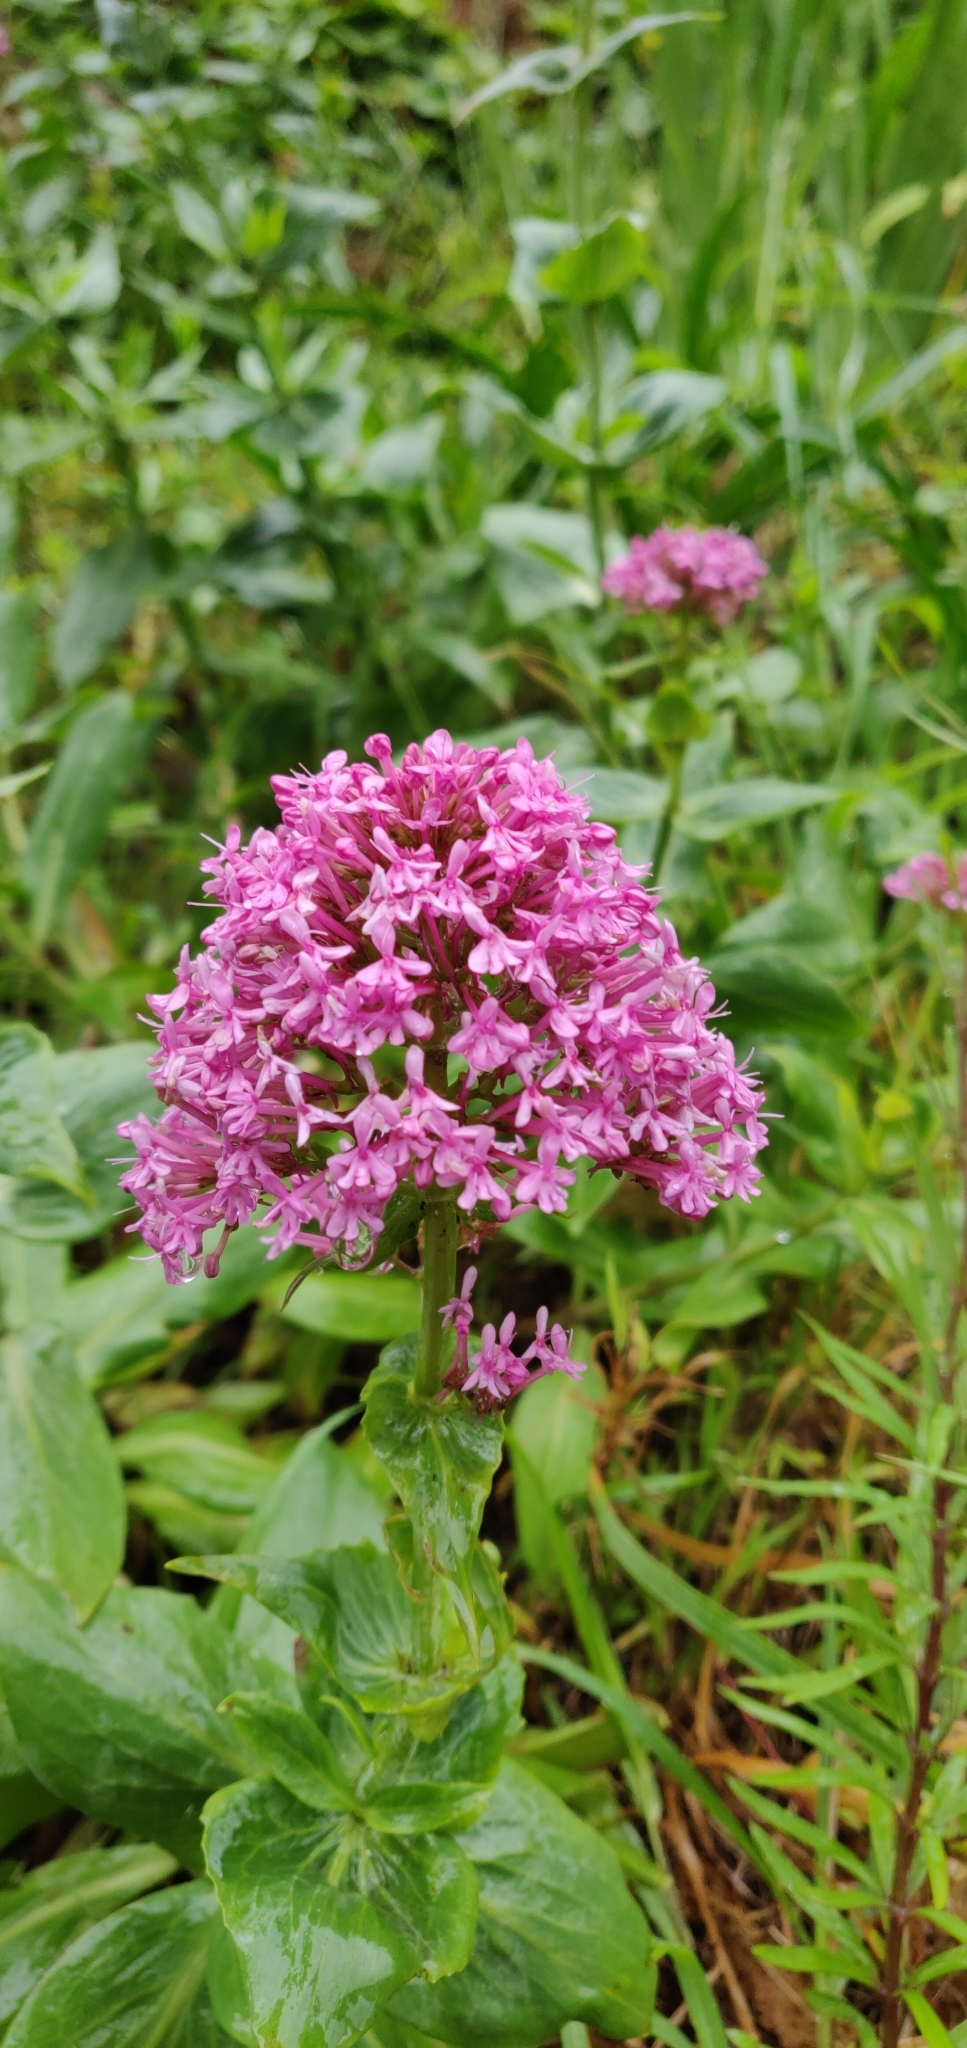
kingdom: Plantae
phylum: Tracheophyta
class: Magnoliopsida
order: Dipsacales
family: Caprifoliaceae
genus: Centranthus
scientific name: Centranthus ruber
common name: Red valerian
